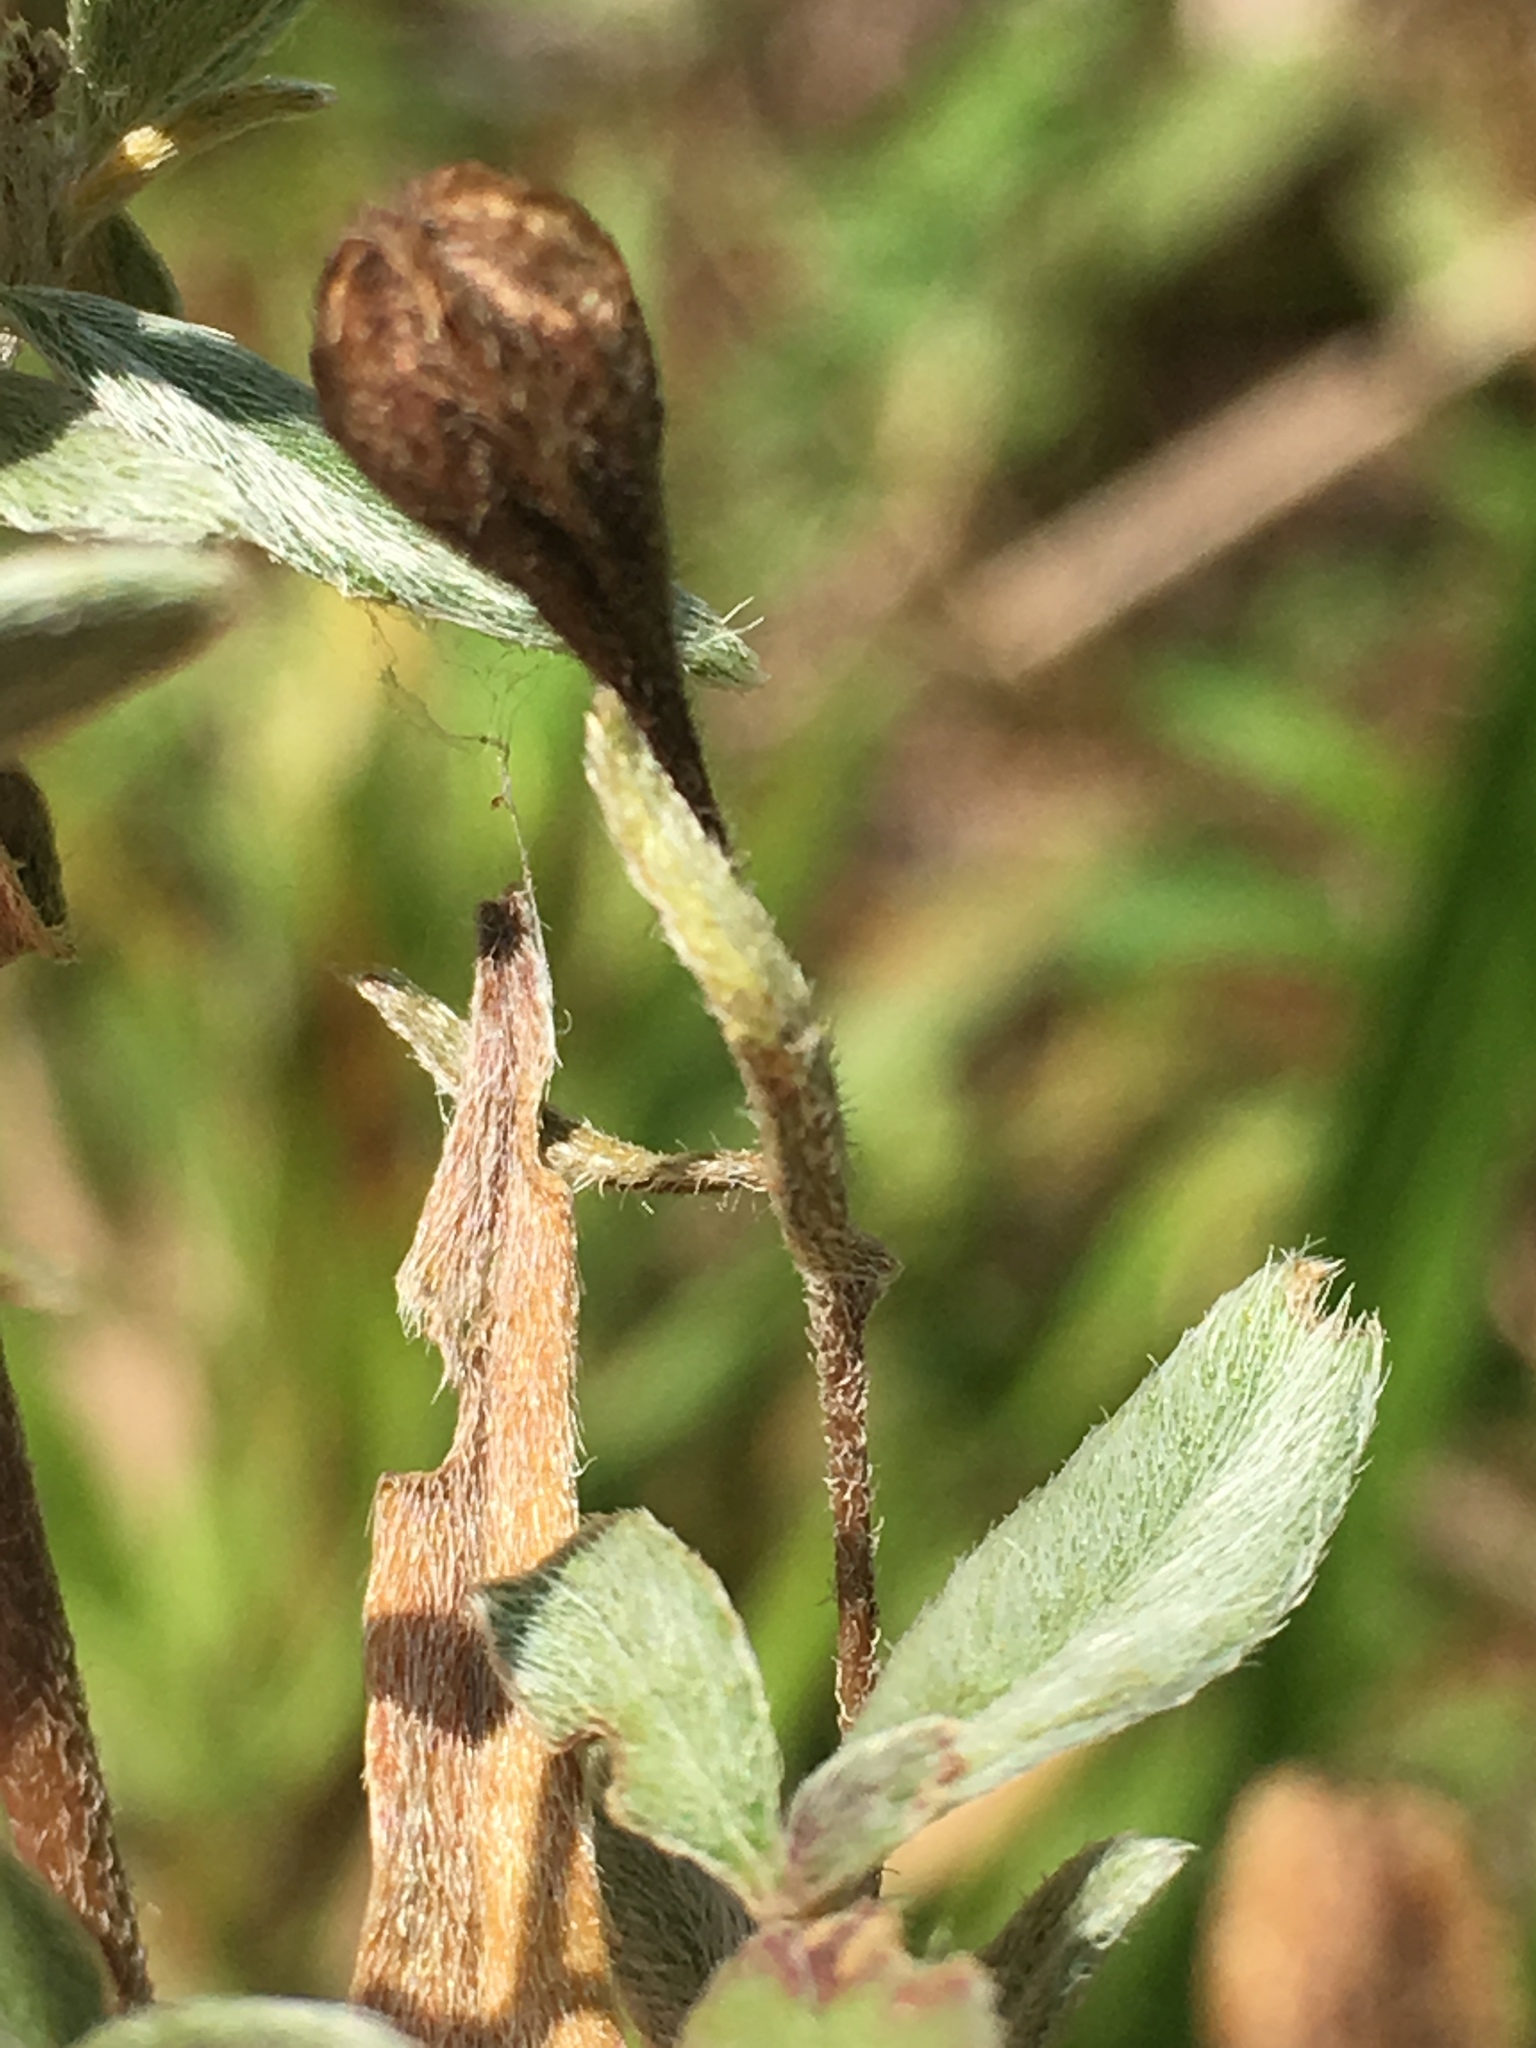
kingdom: Plantae
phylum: Tracheophyta
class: Magnoliopsida
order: Myrtales
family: Onagraceae
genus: Oenothera
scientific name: Oenothera fruticosa
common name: Southern sundrops
